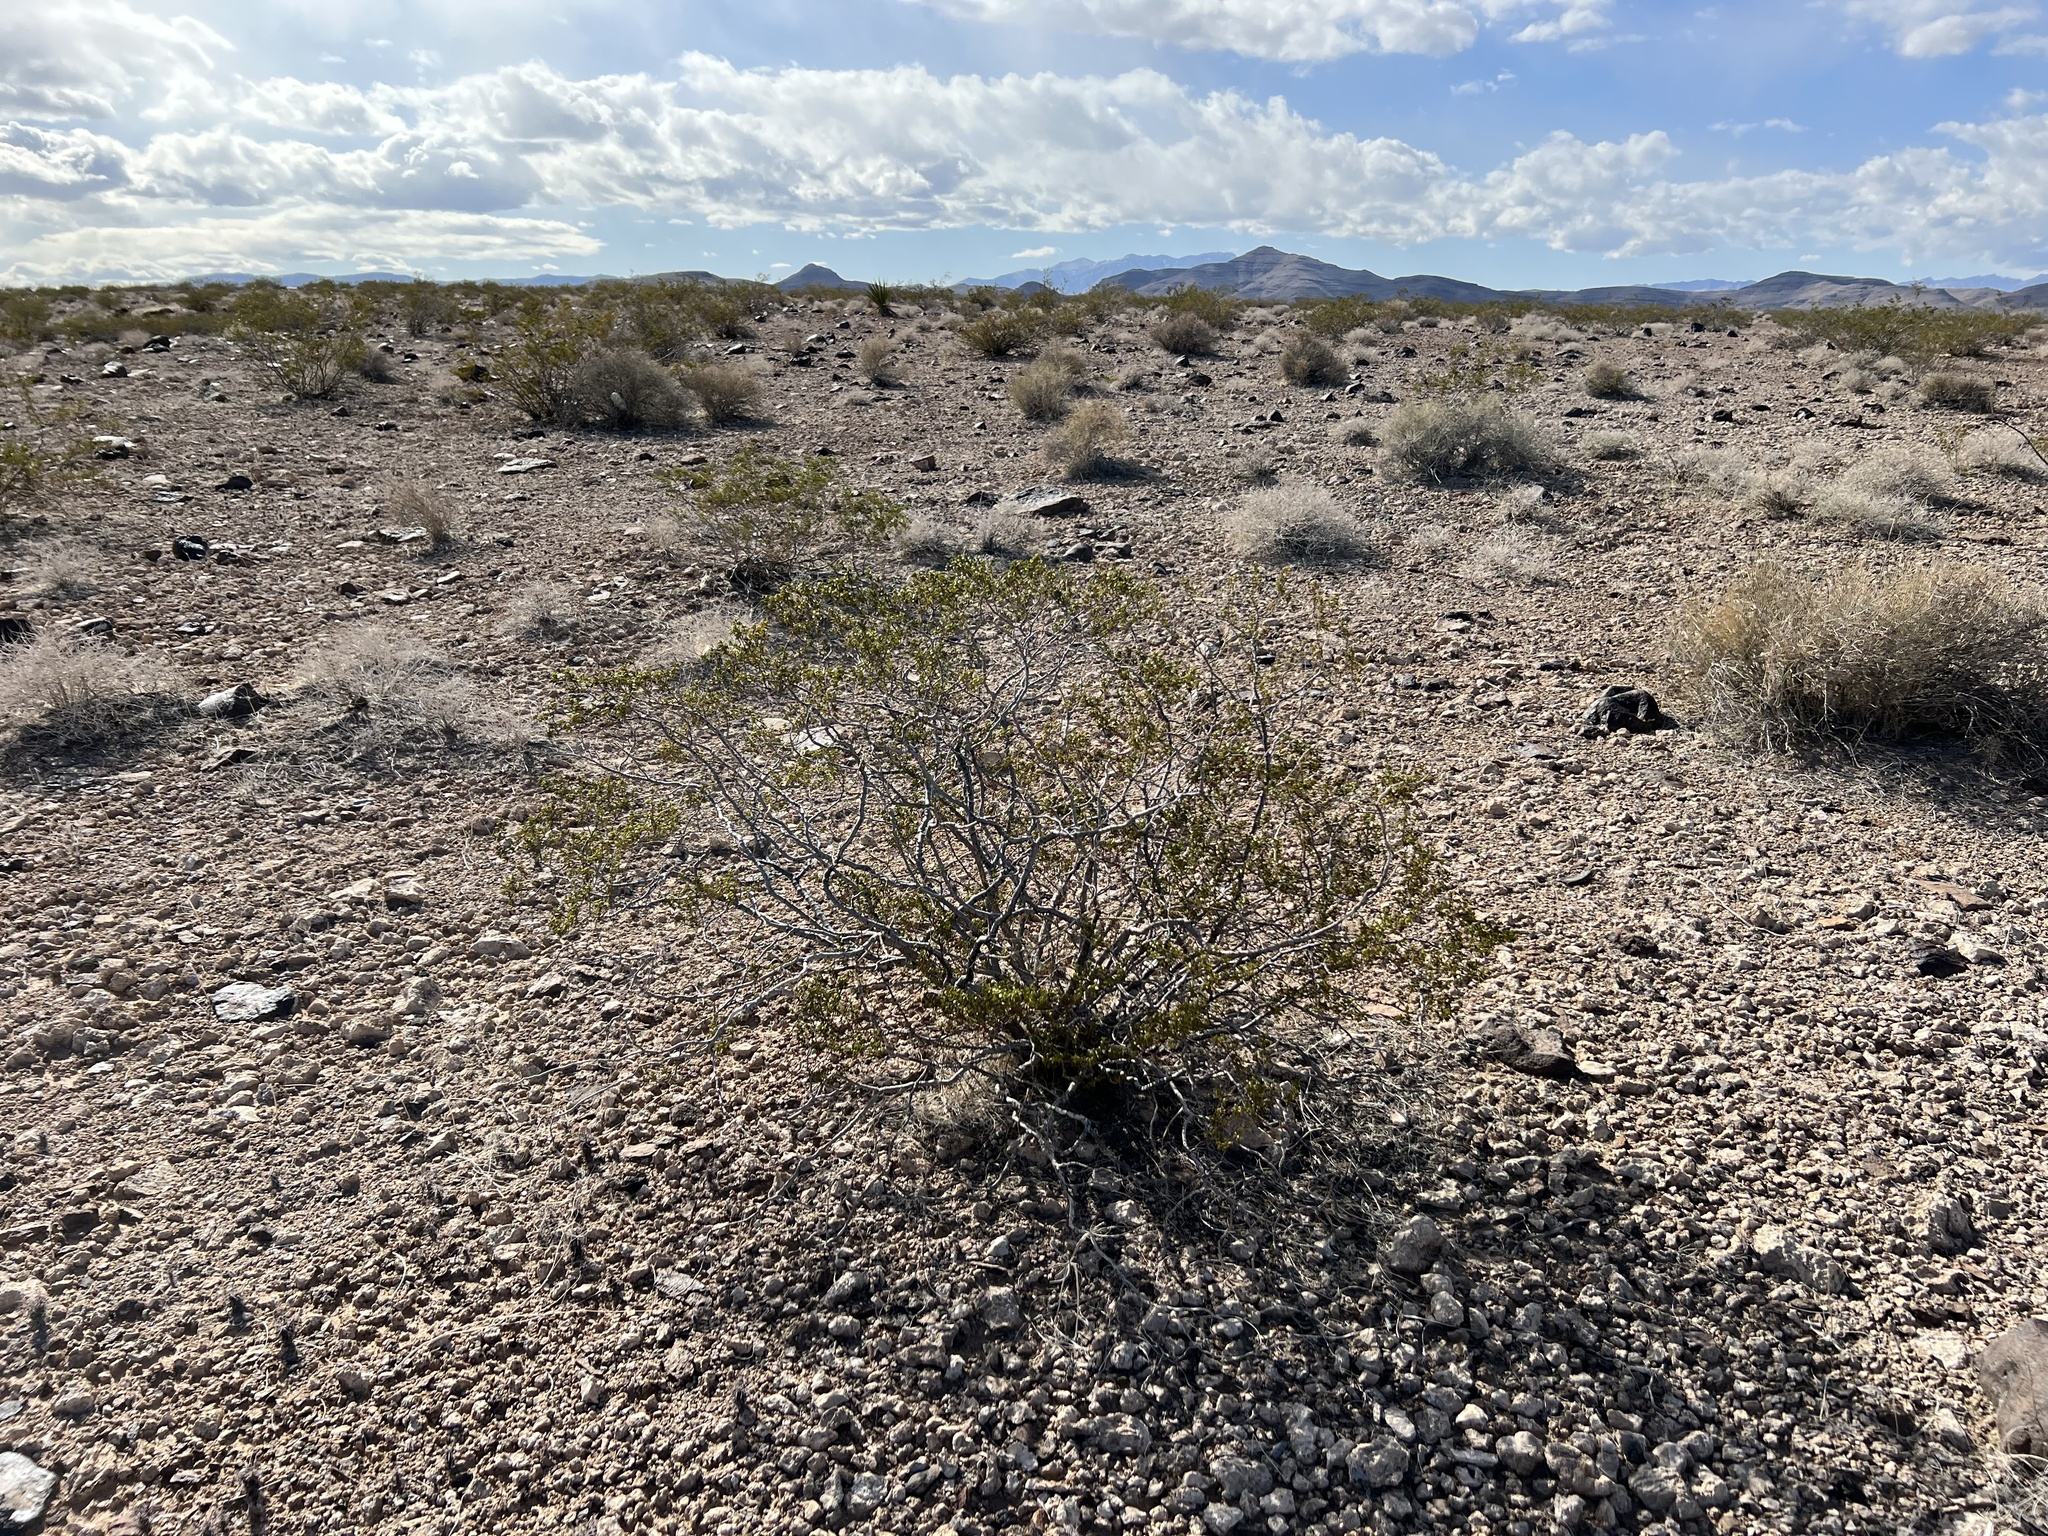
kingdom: Plantae
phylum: Tracheophyta
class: Magnoliopsida
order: Zygophyllales
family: Zygophyllaceae
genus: Larrea
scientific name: Larrea tridentata
